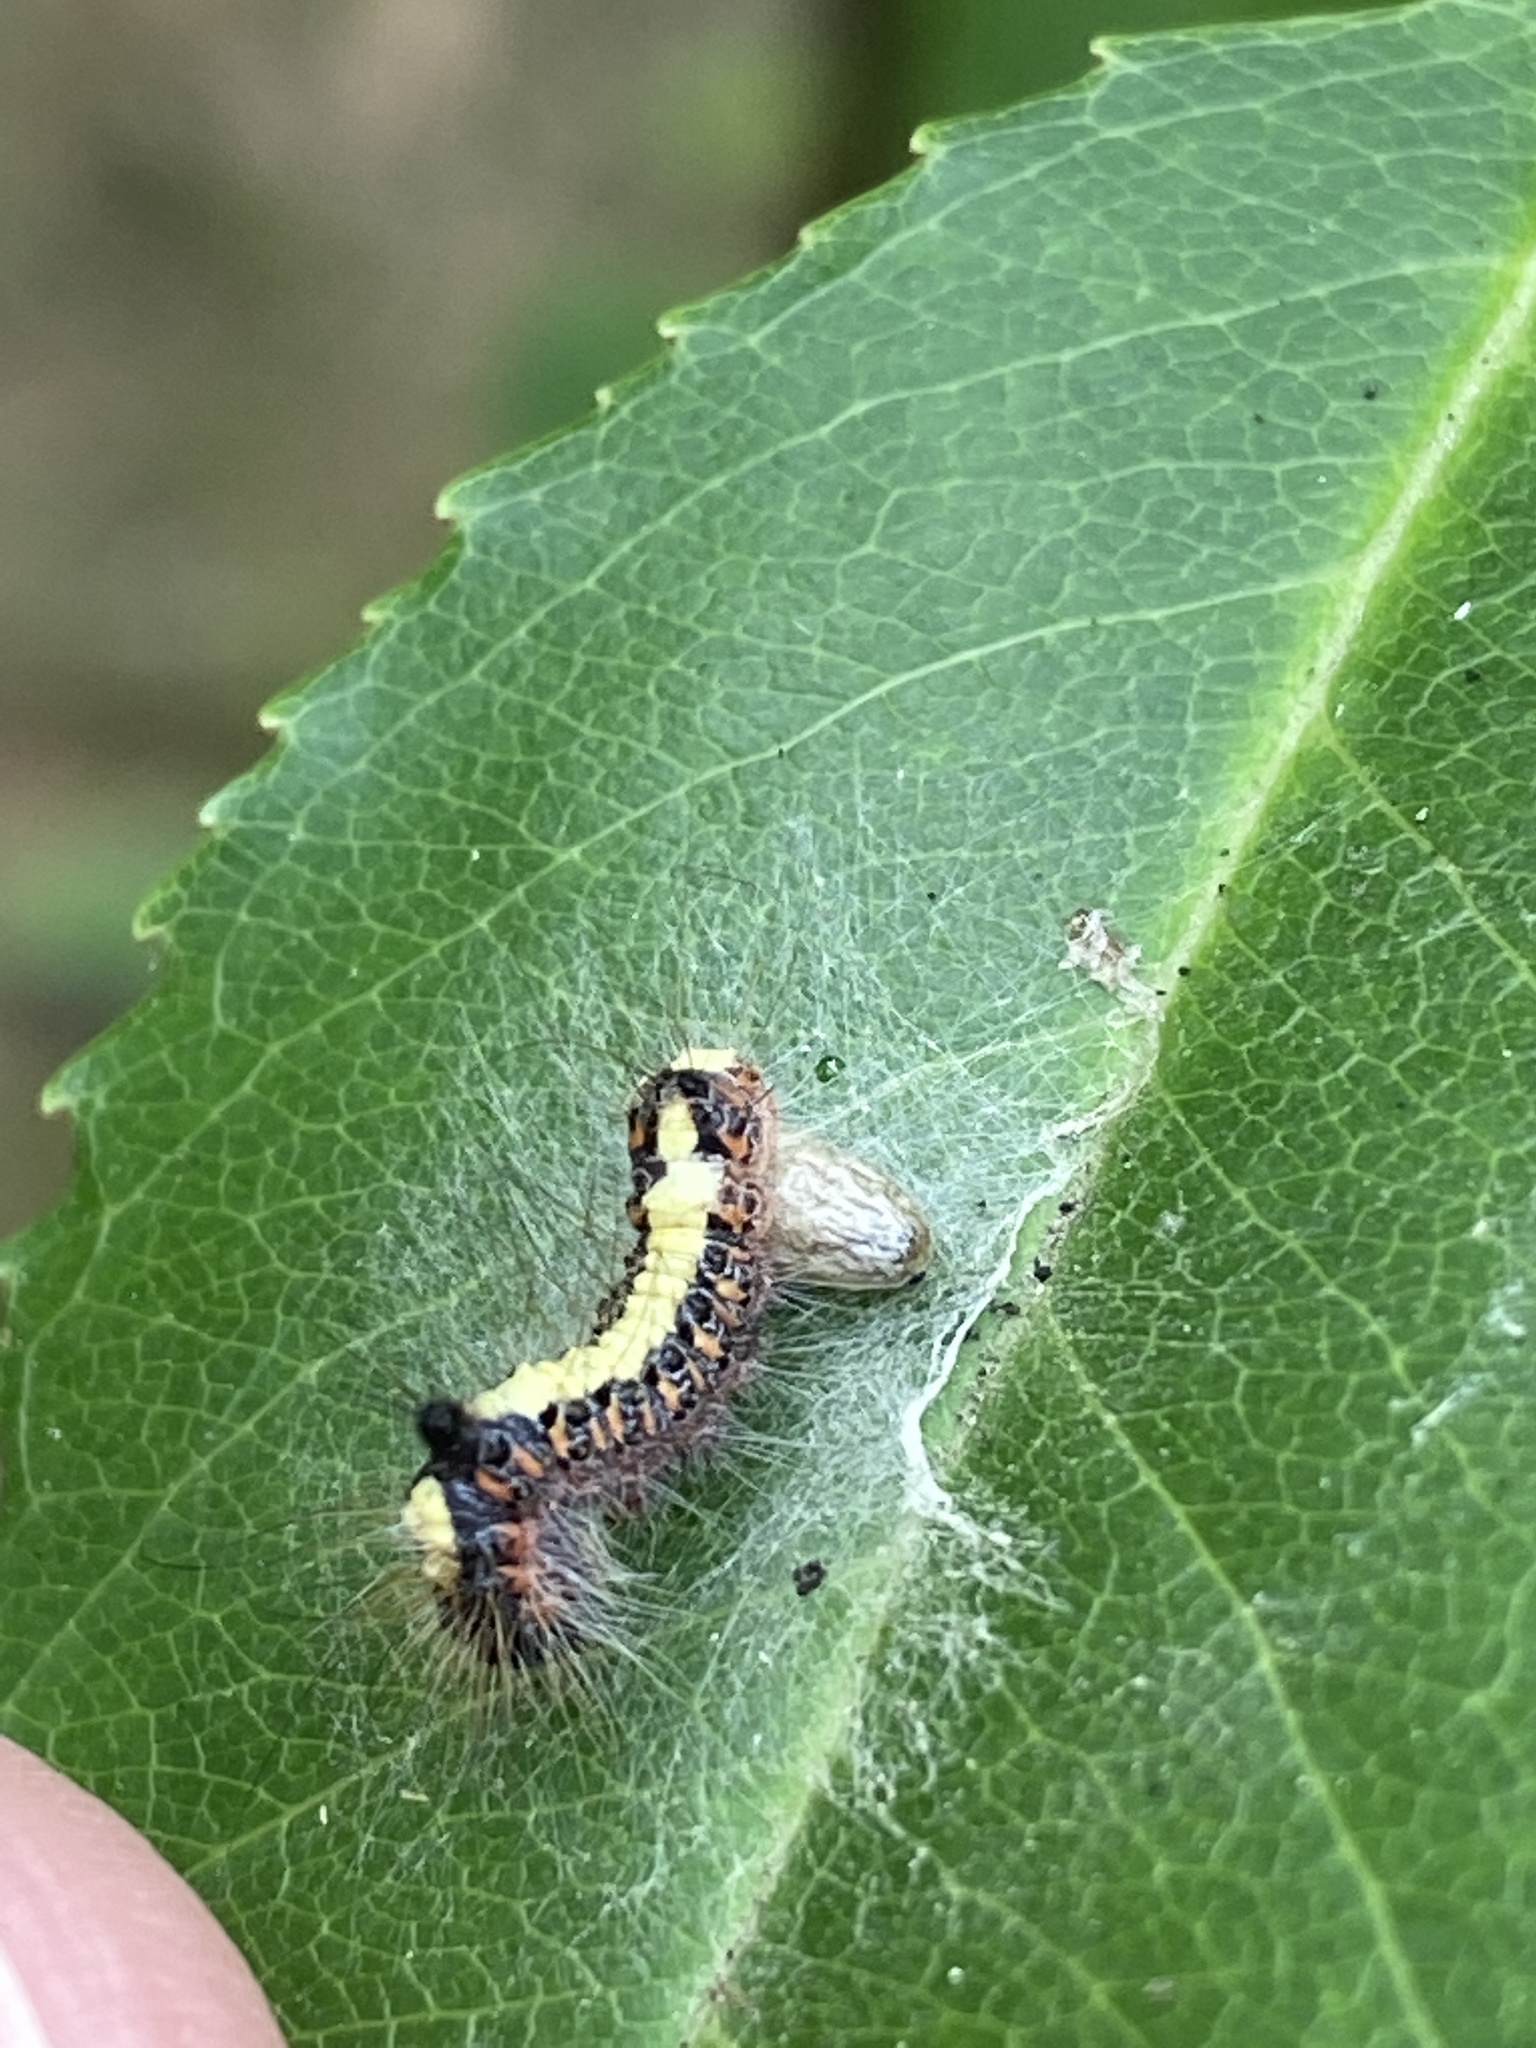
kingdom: Animalia
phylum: Arthropoda
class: Insecta
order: Lepidoptera
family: Noctuidae
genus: Acronicta
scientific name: Acronicta psi
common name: Grey dagger
